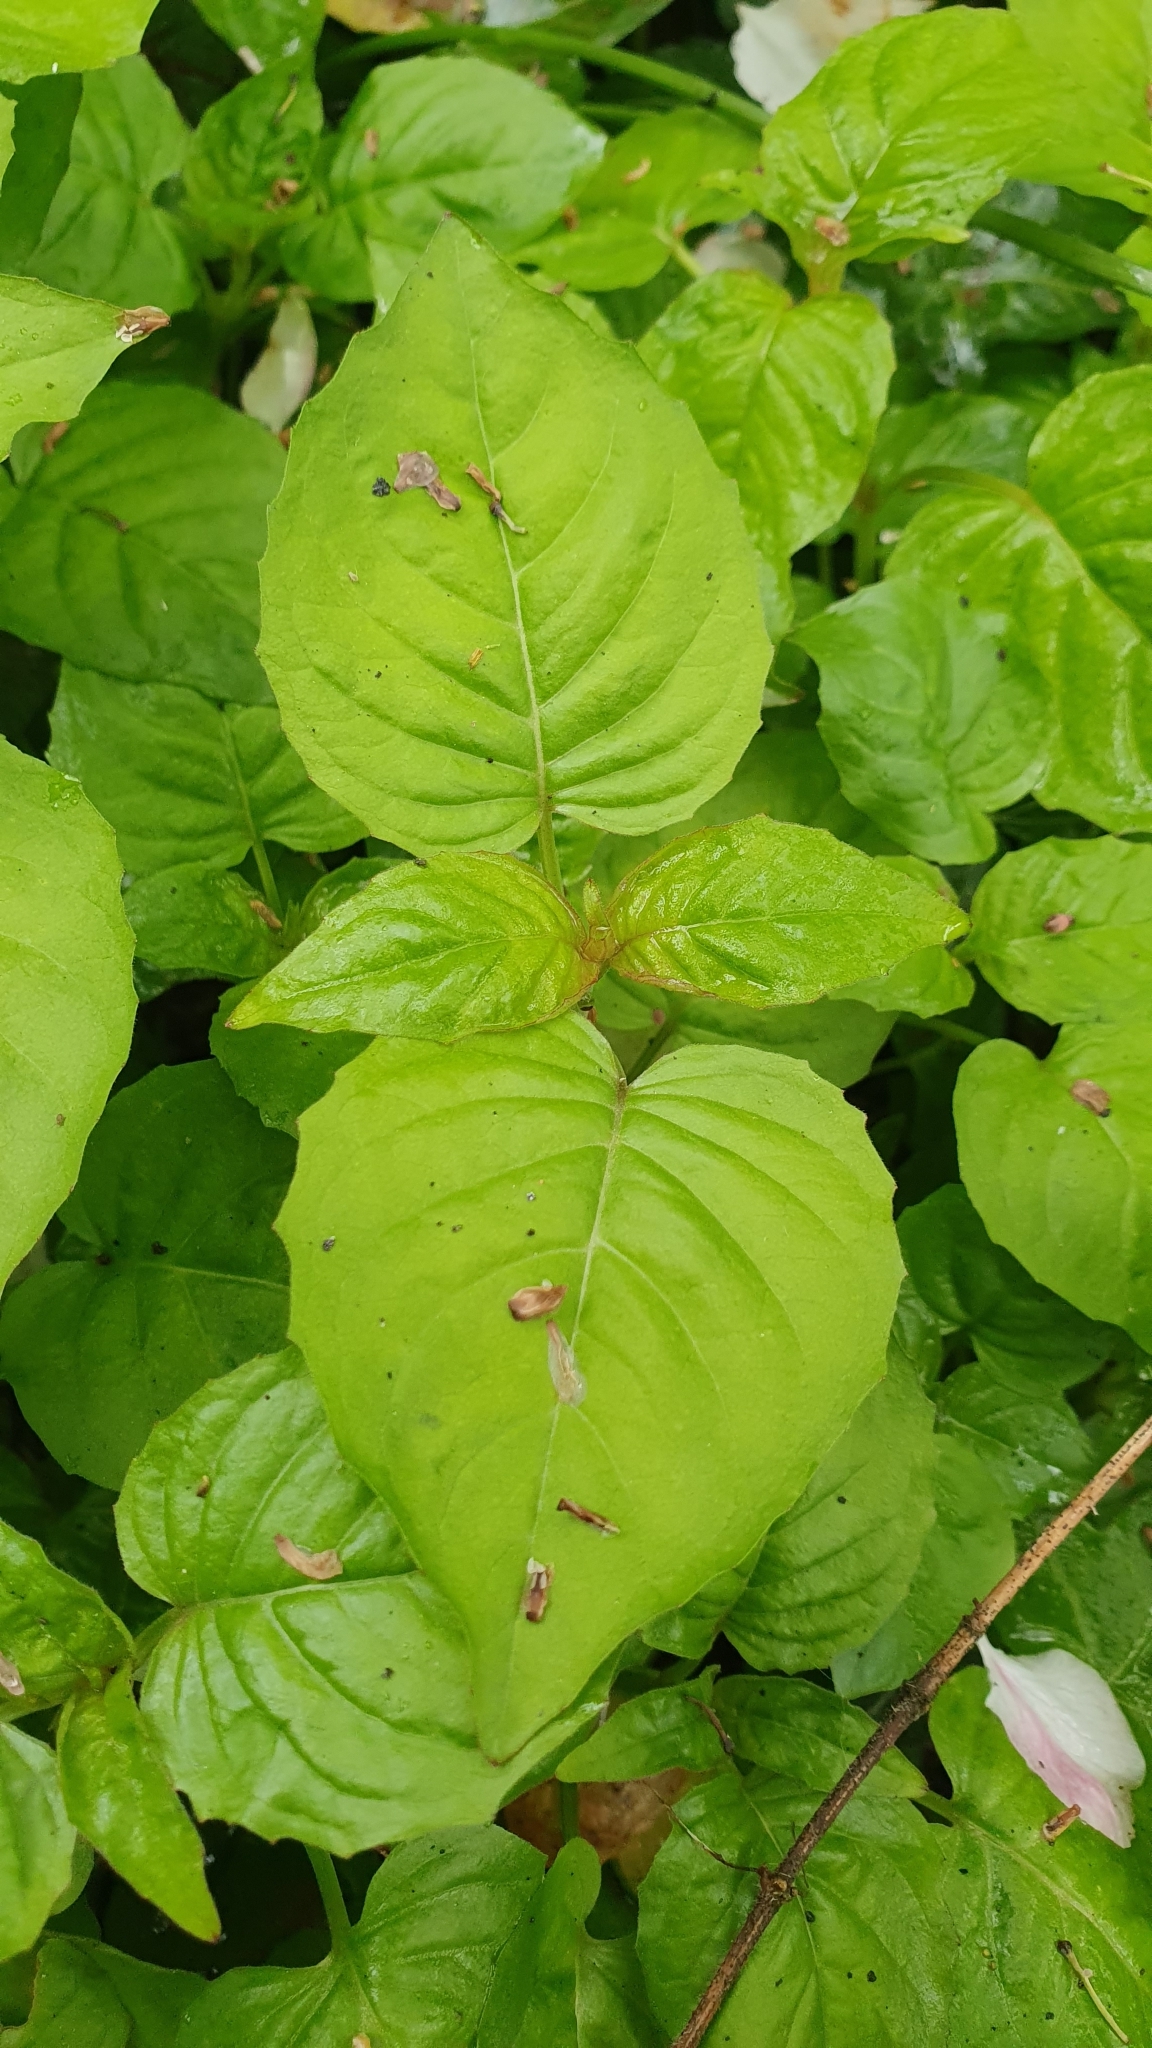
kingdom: Plantae
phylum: Tracheophyta
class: Magnoliopsida
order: Myrtales
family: Onagraceae
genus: Circaea
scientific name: Circaea lutetiana
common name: Enchanter's-nightshade
